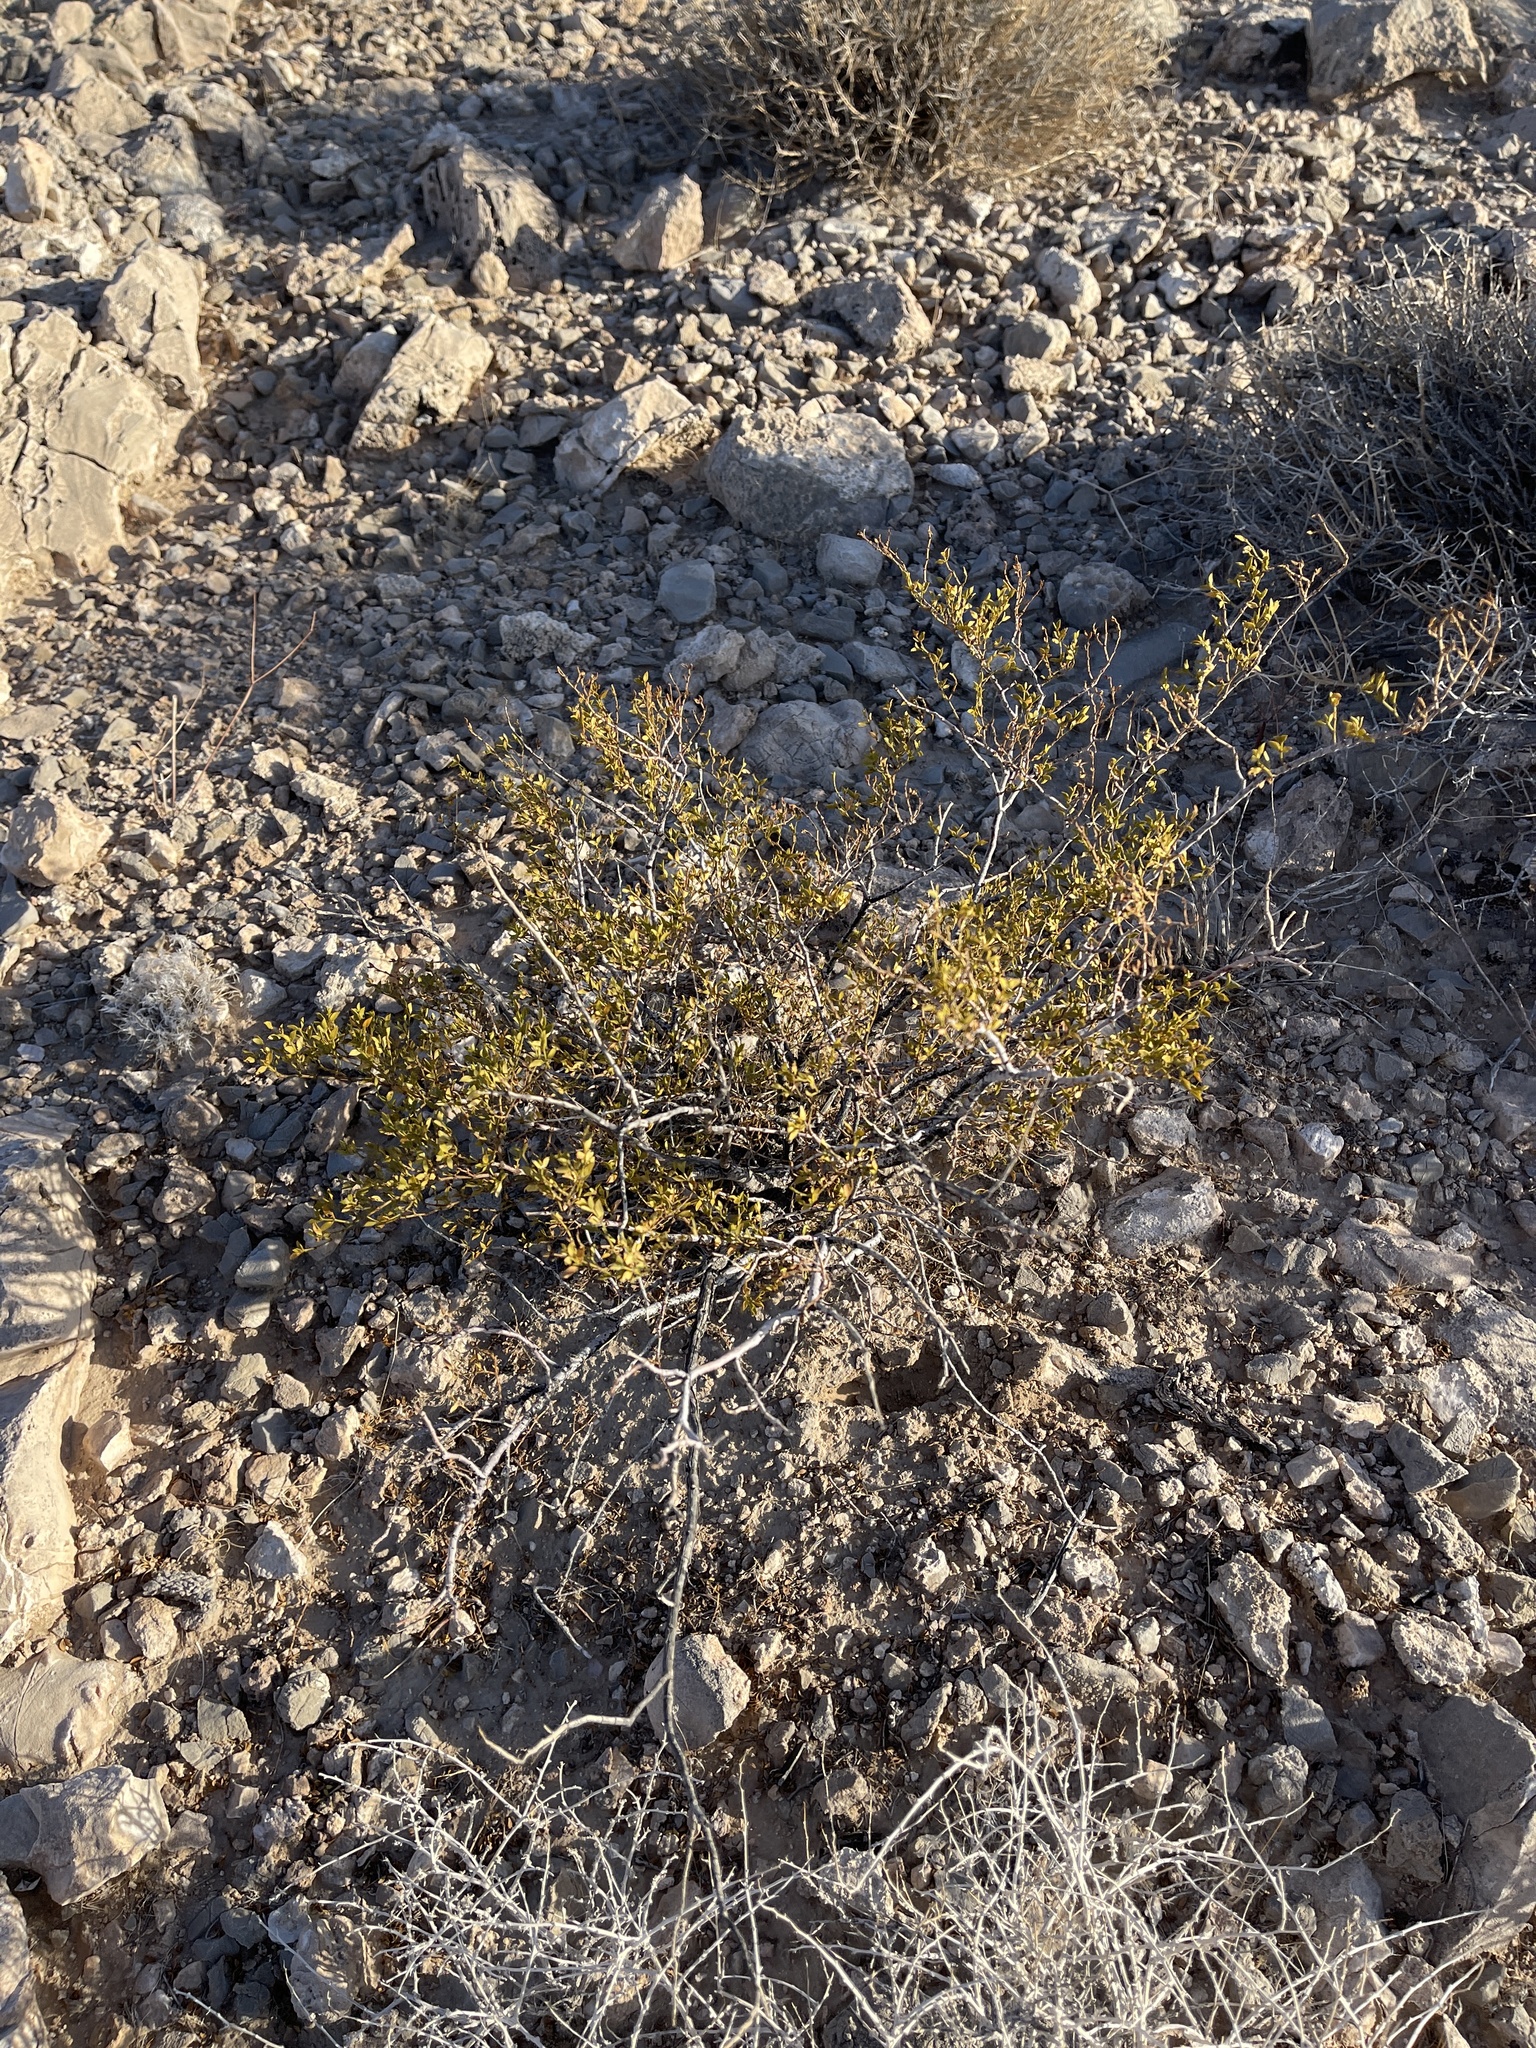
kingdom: Plantae
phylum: Tracheophyta
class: Magnoliopsida
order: Zygophyllales
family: Zygophyllaceae
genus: Larrea
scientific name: Larrea tridentata
